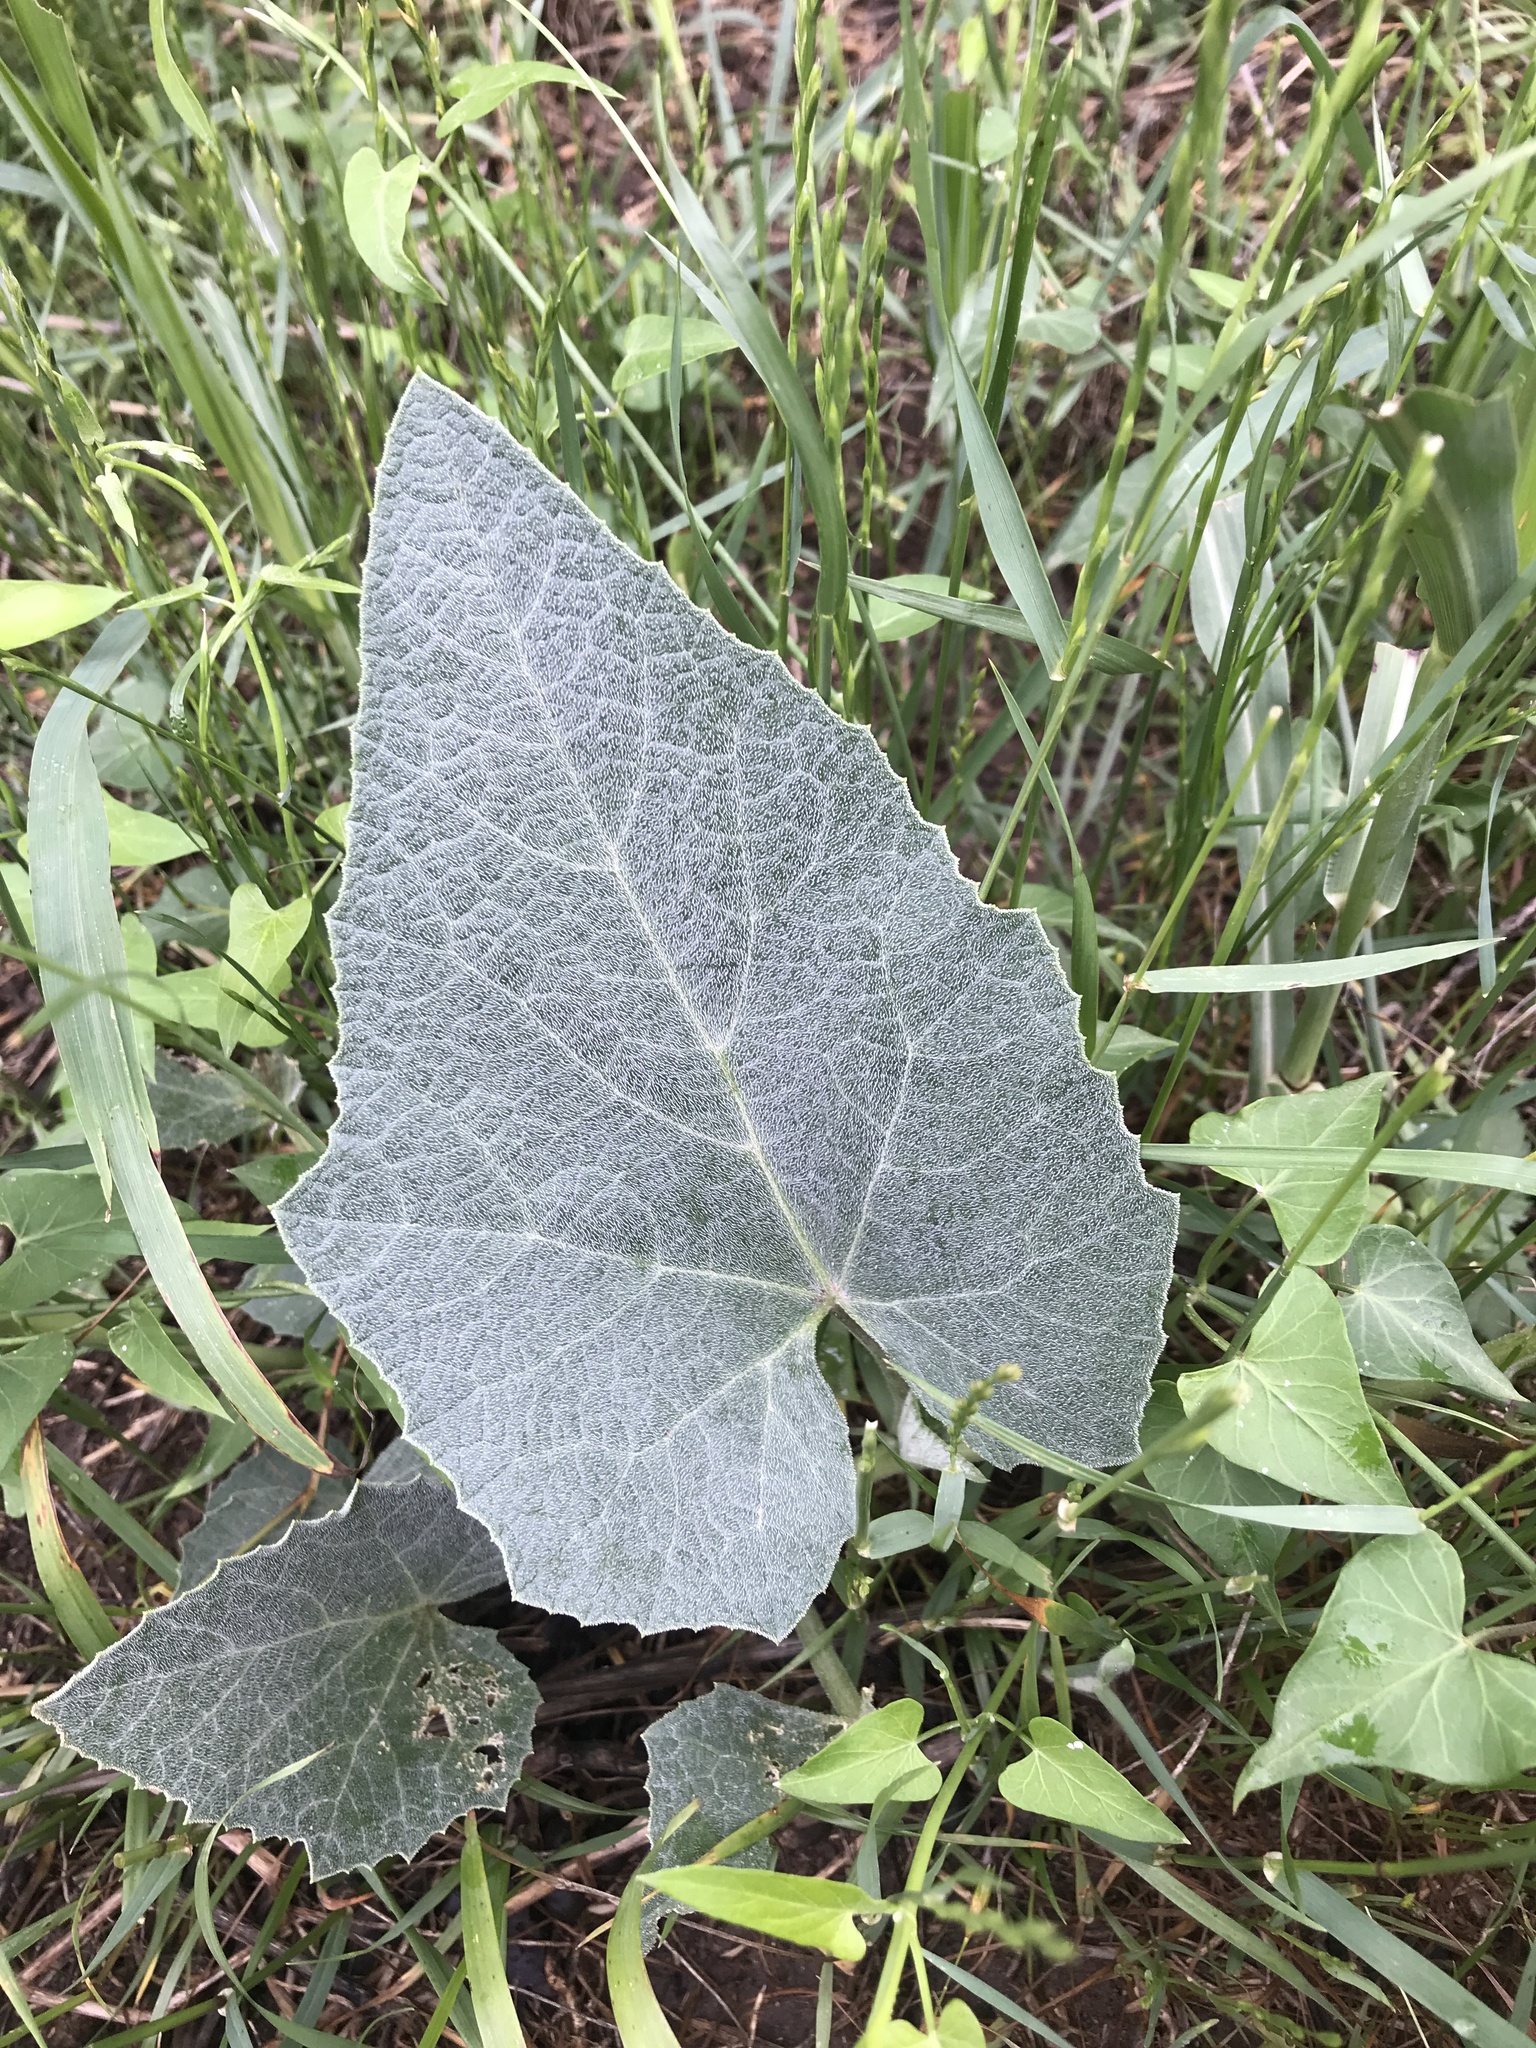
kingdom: Plantae
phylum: Tracheophyta
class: Magnoliopsida
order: Cucurbitales
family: Cucurbitaceae
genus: Cucurbita
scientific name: Cucurbita foetidissima
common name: Buffalo gourd
